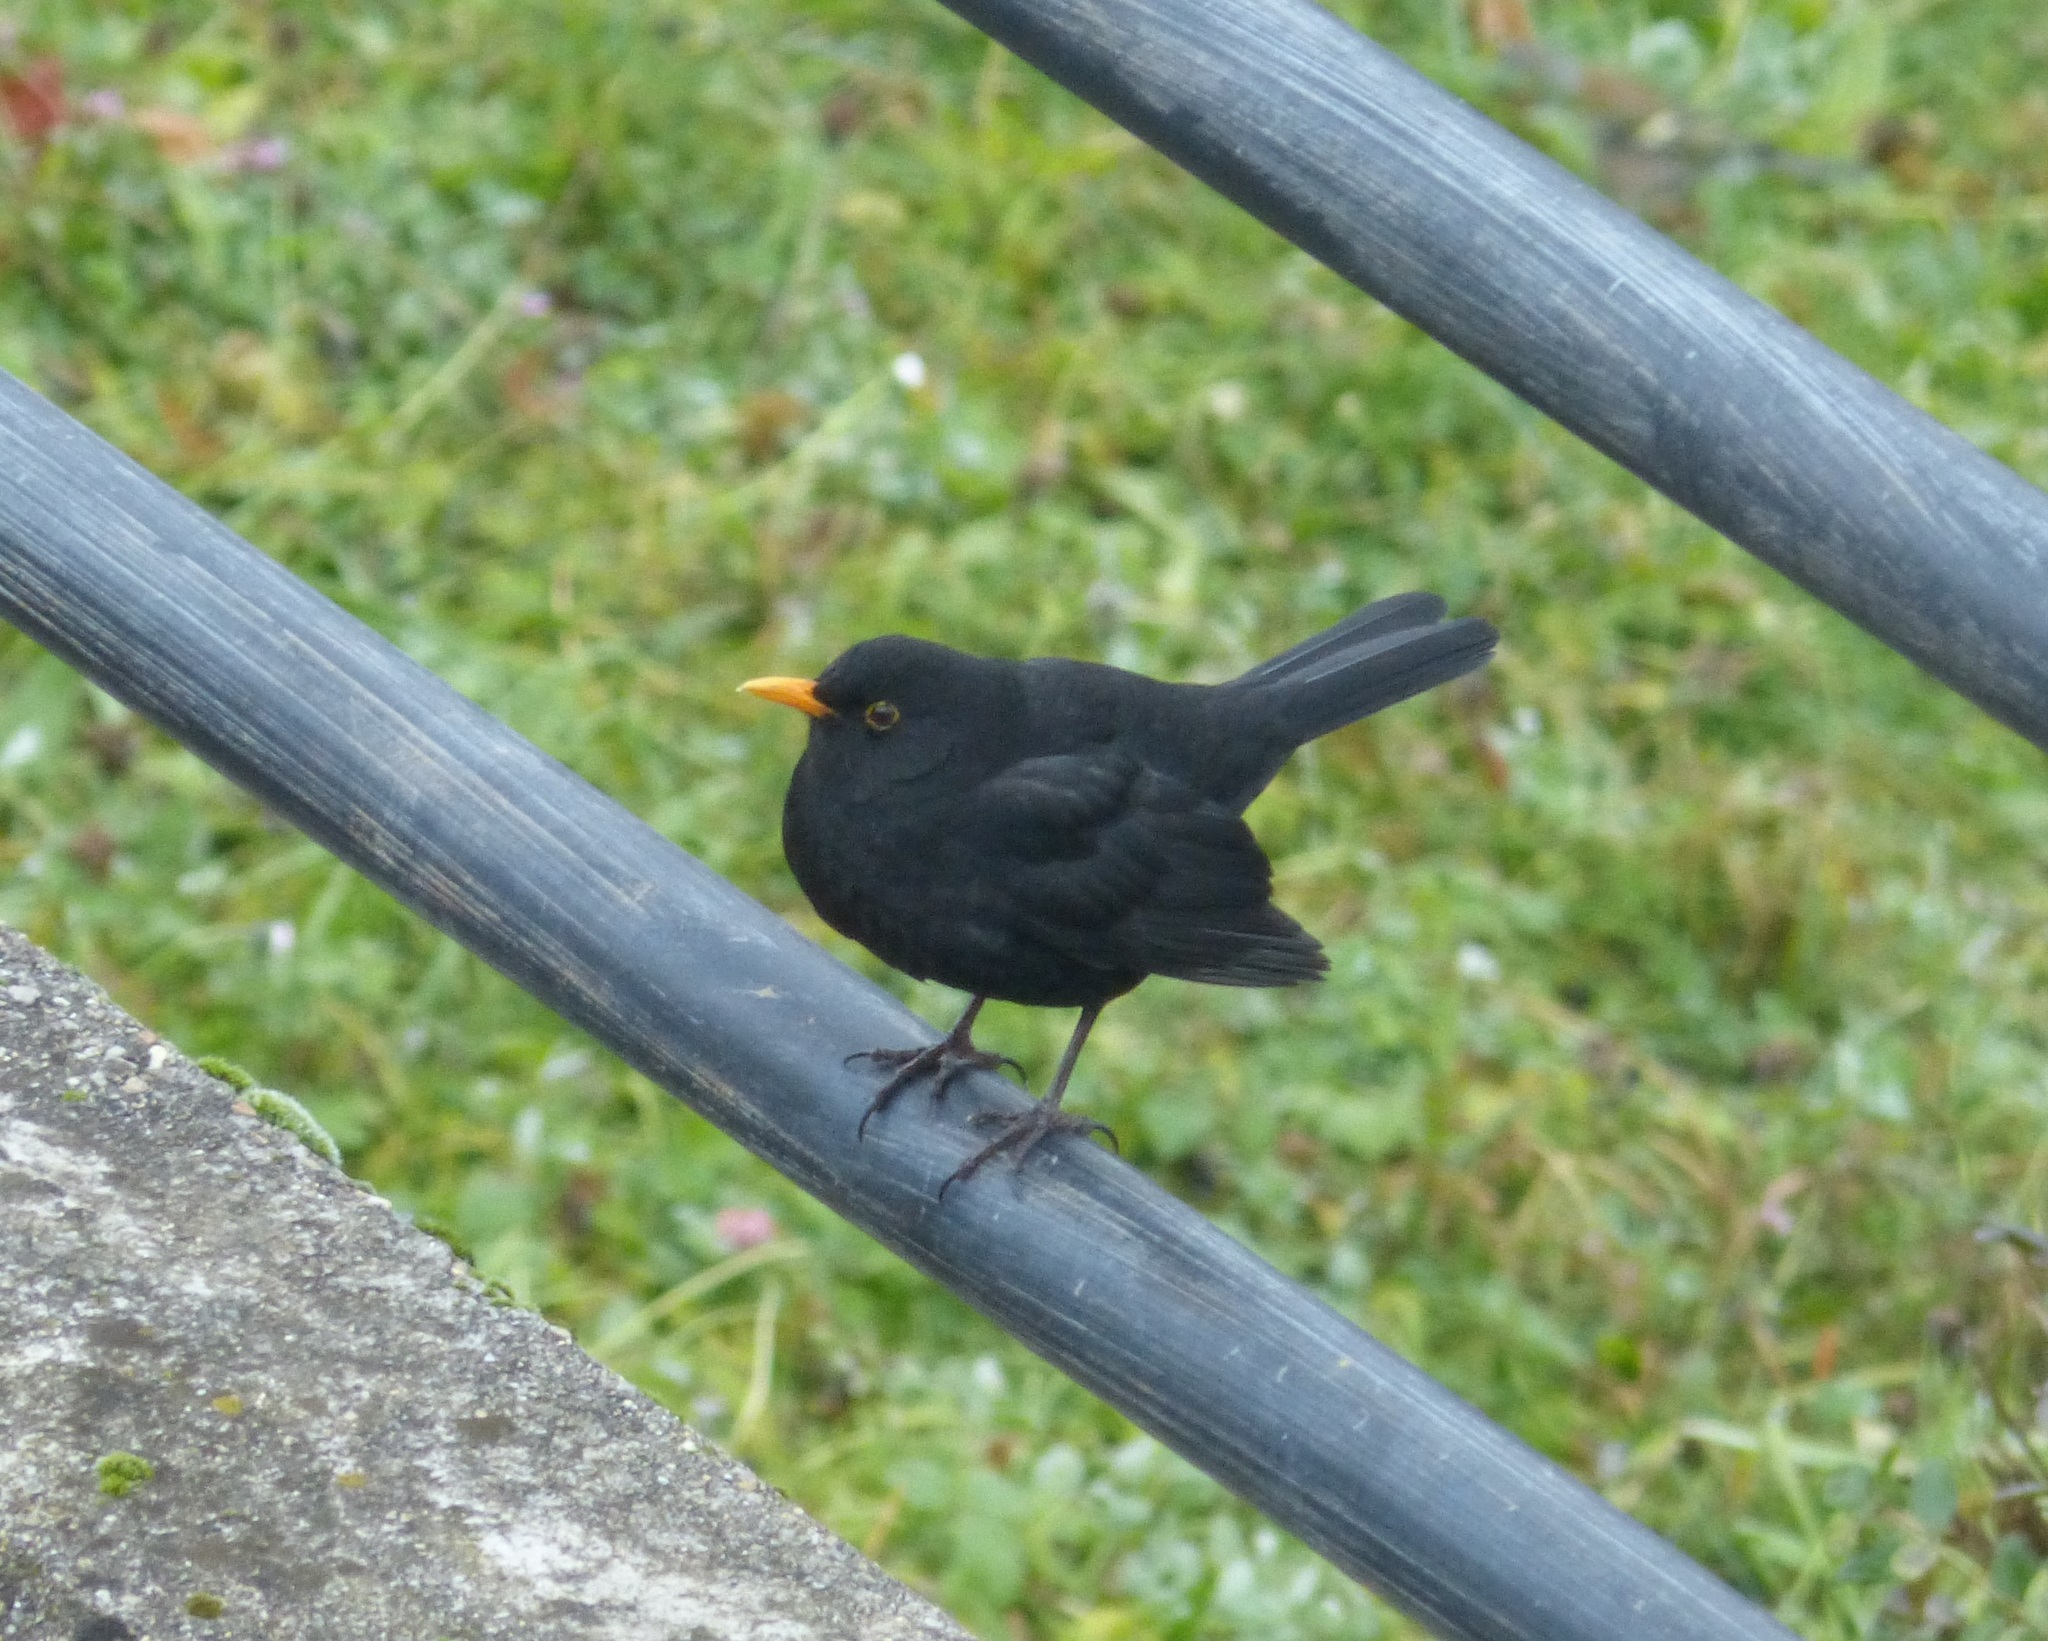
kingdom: Animalia
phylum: Chordata
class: Aves
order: Passeriformes
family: Turdidae
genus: Turdus
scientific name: Turdus merula
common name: Common blackbird
